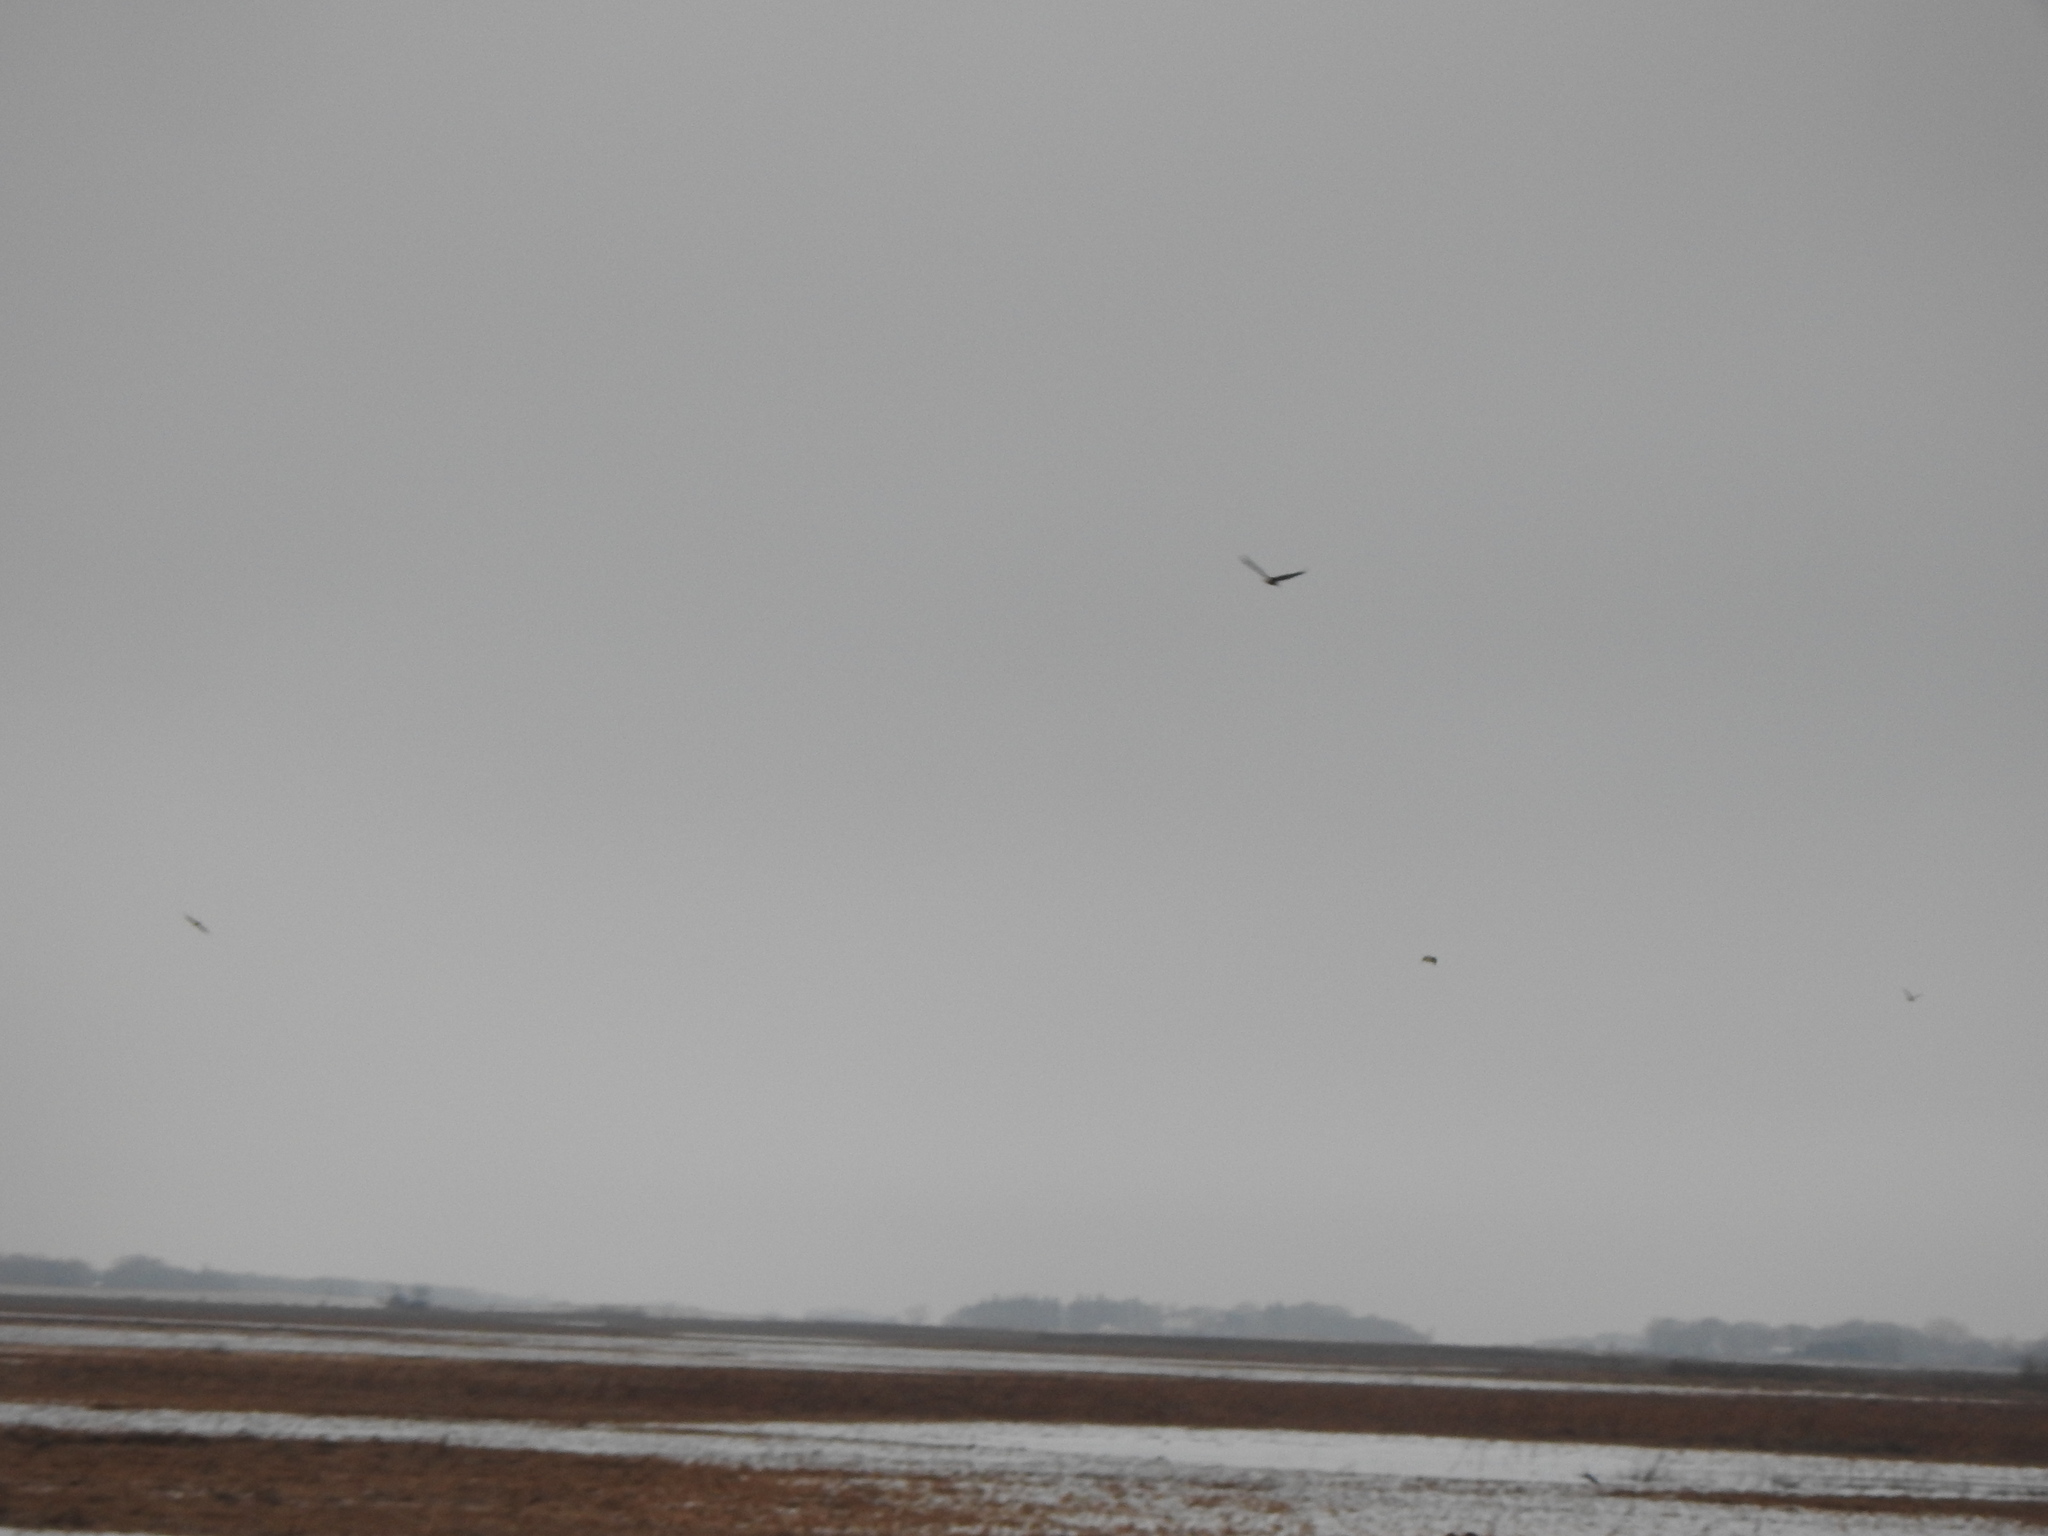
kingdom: Animalia
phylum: Chordata
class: Aves
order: Accipitriformes
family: Accipitridae
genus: Haliaeetus
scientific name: Haliaeetus leucocephalus
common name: Bald eagle
